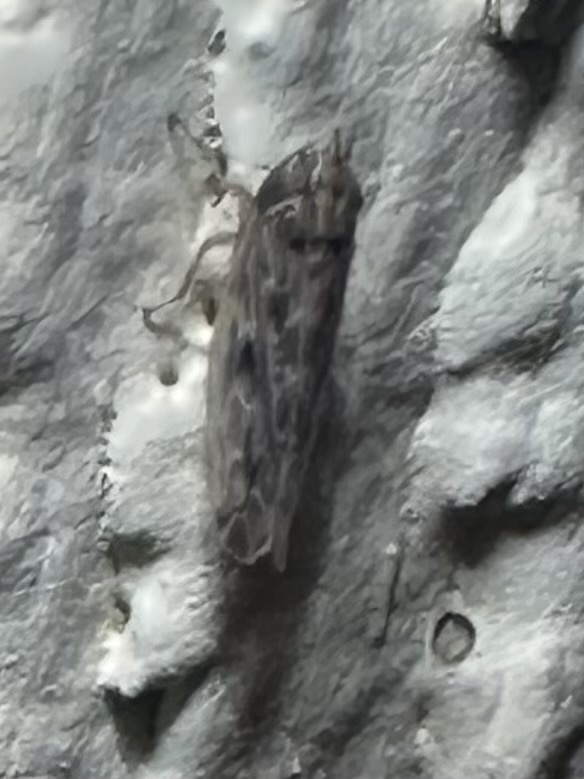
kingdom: Animalia
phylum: Arthropoda
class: Insecta
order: Hemiptera
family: Cicadellidae
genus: Endria
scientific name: Endria inimicus
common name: Painted leafhopper
